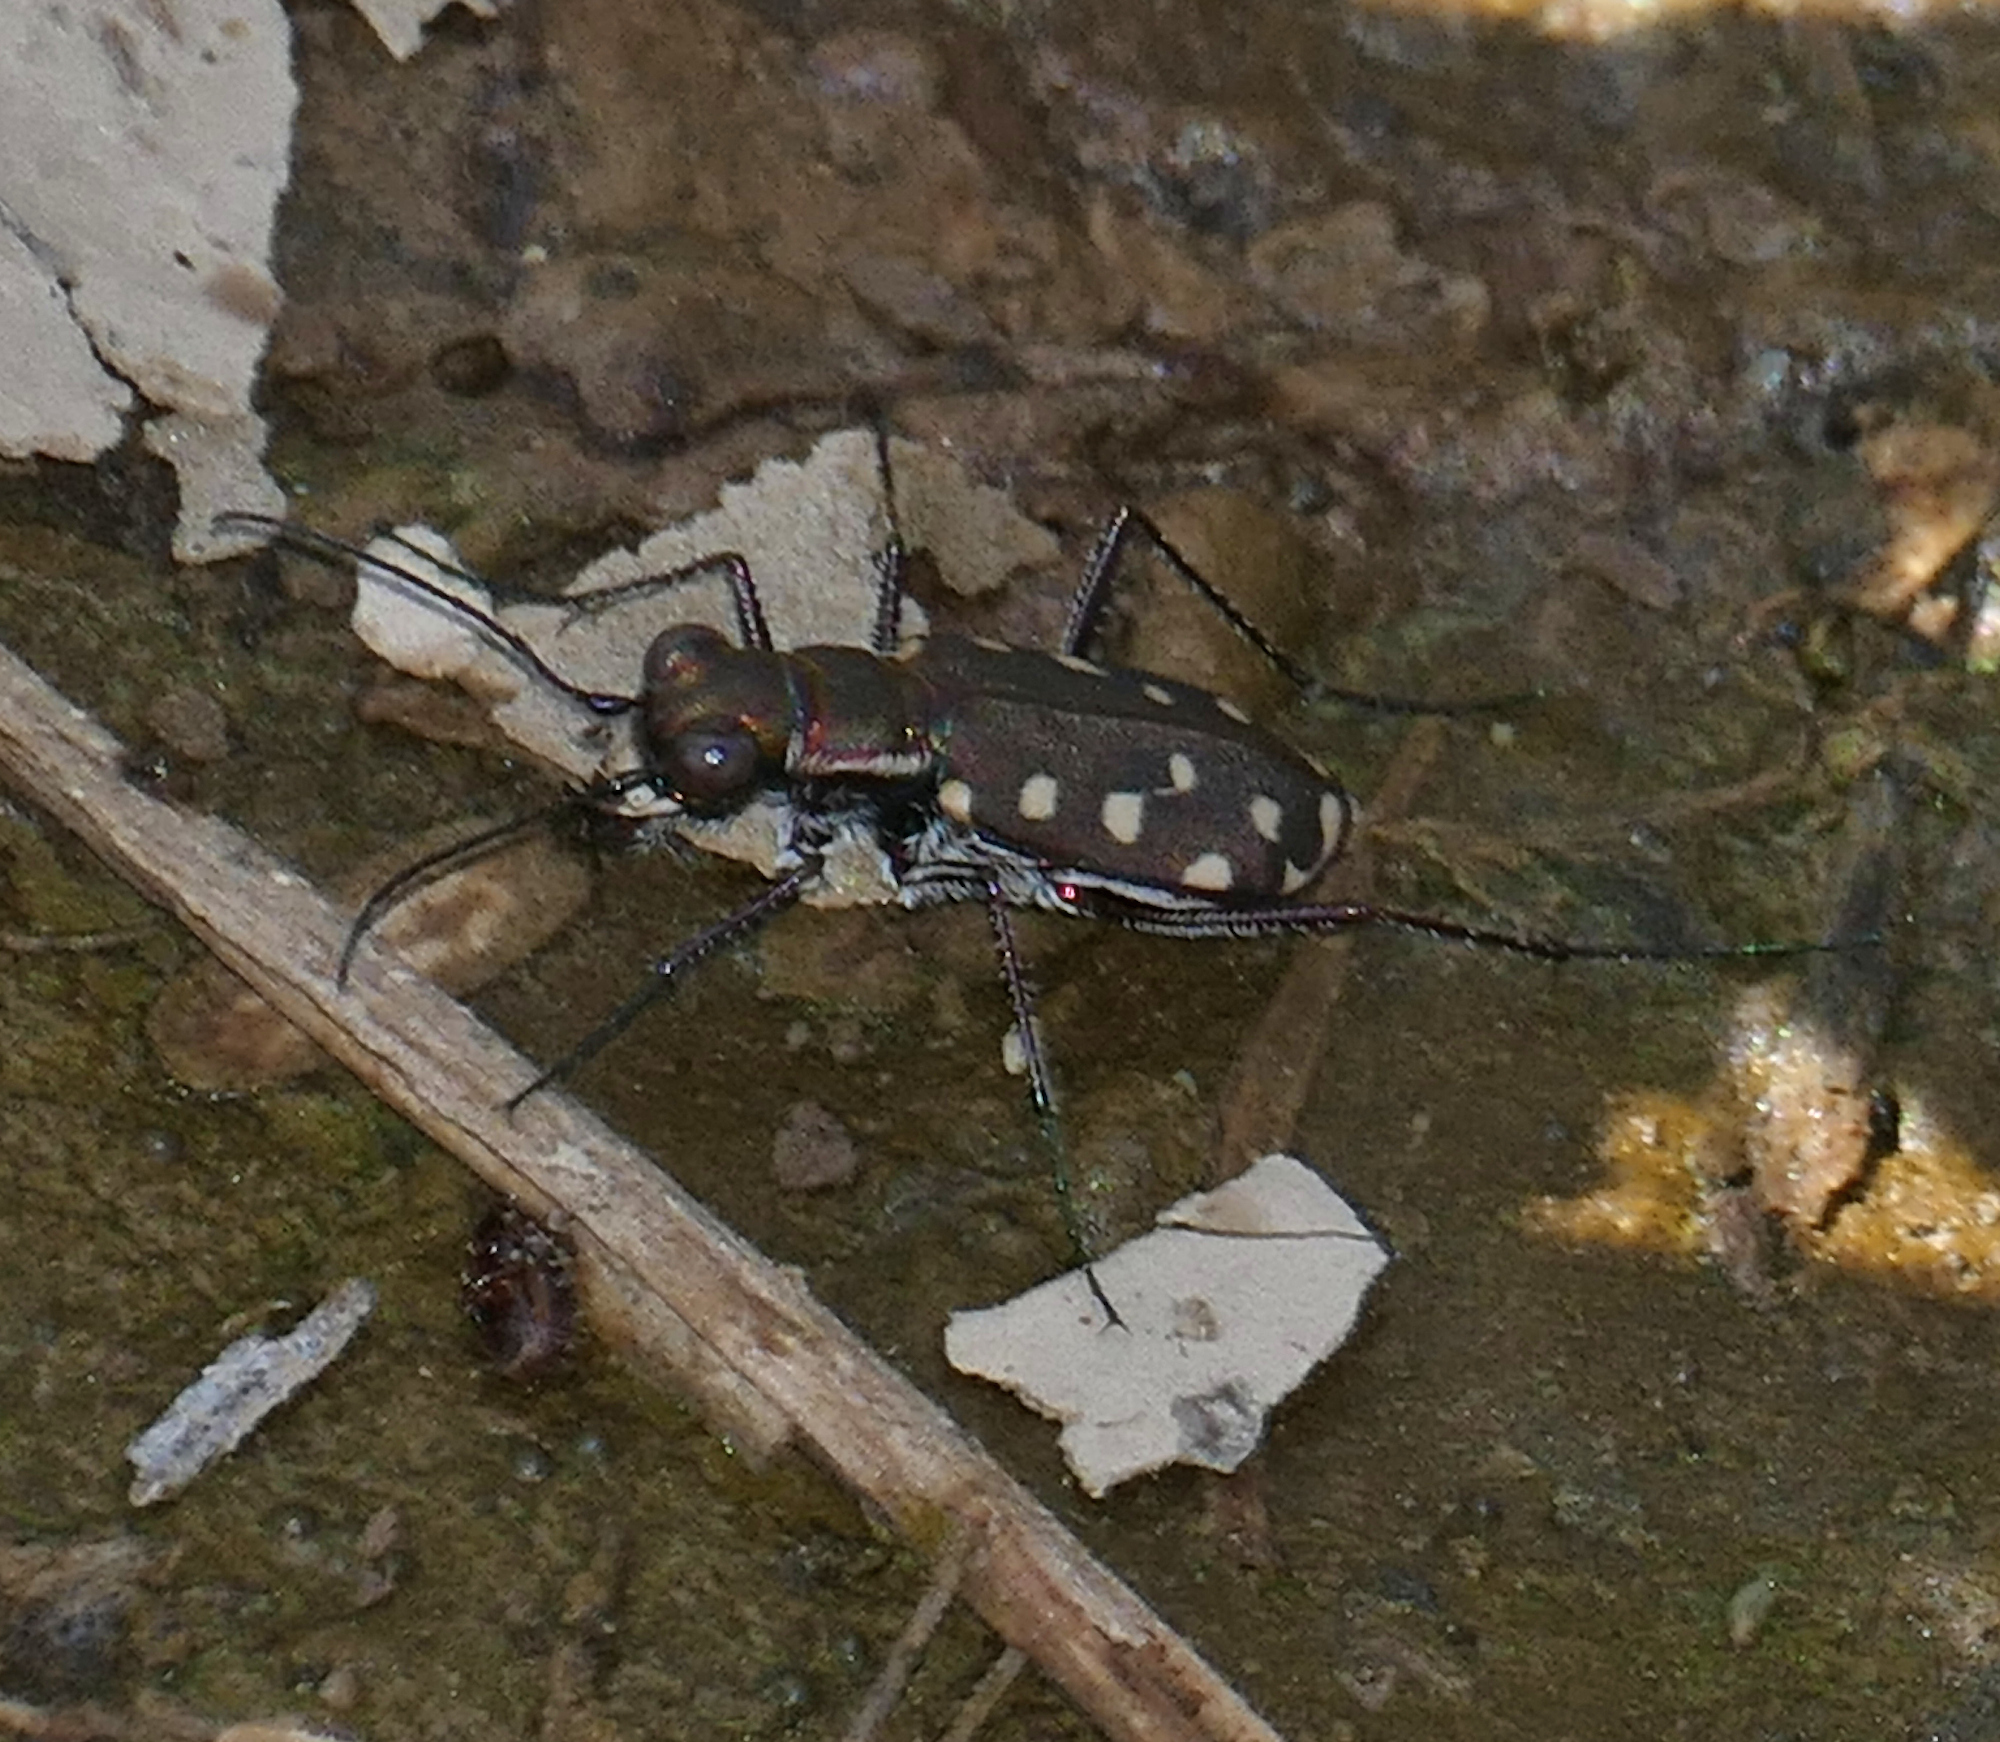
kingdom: Animalia
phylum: Arthropoda
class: Insecta
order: Coleoptera
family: Carabidae
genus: Cicindela
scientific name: Cicindela sedecimpunctata
